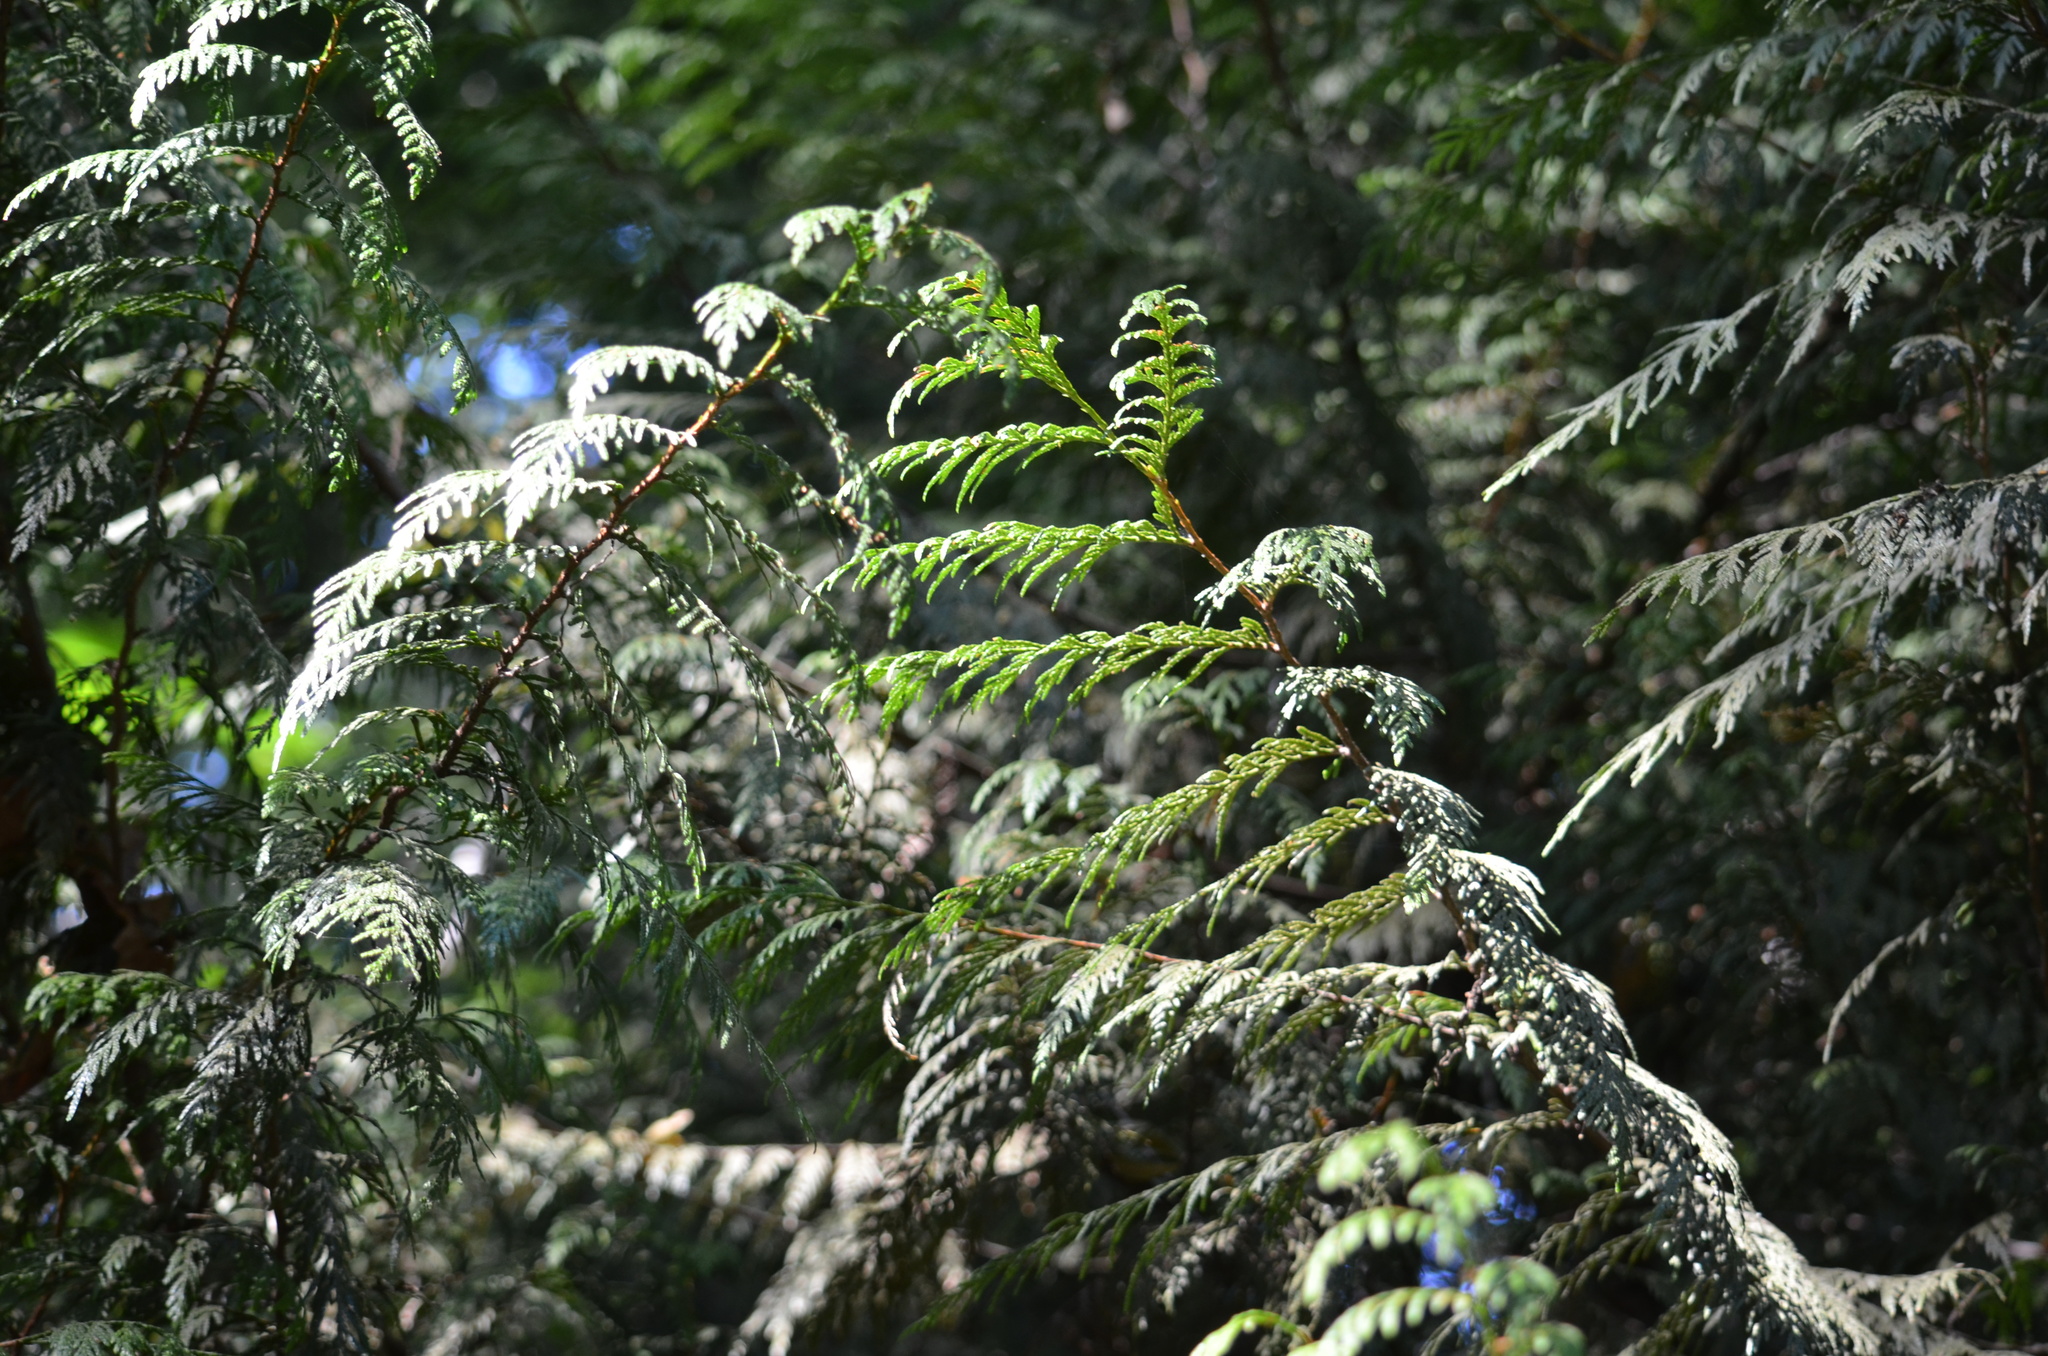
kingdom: Plantae
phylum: Tracheophyta
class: Pinopsida
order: Pinales
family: Cupressaceae
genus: Thuja
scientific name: Thuja plicata
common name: Western red-cedar
